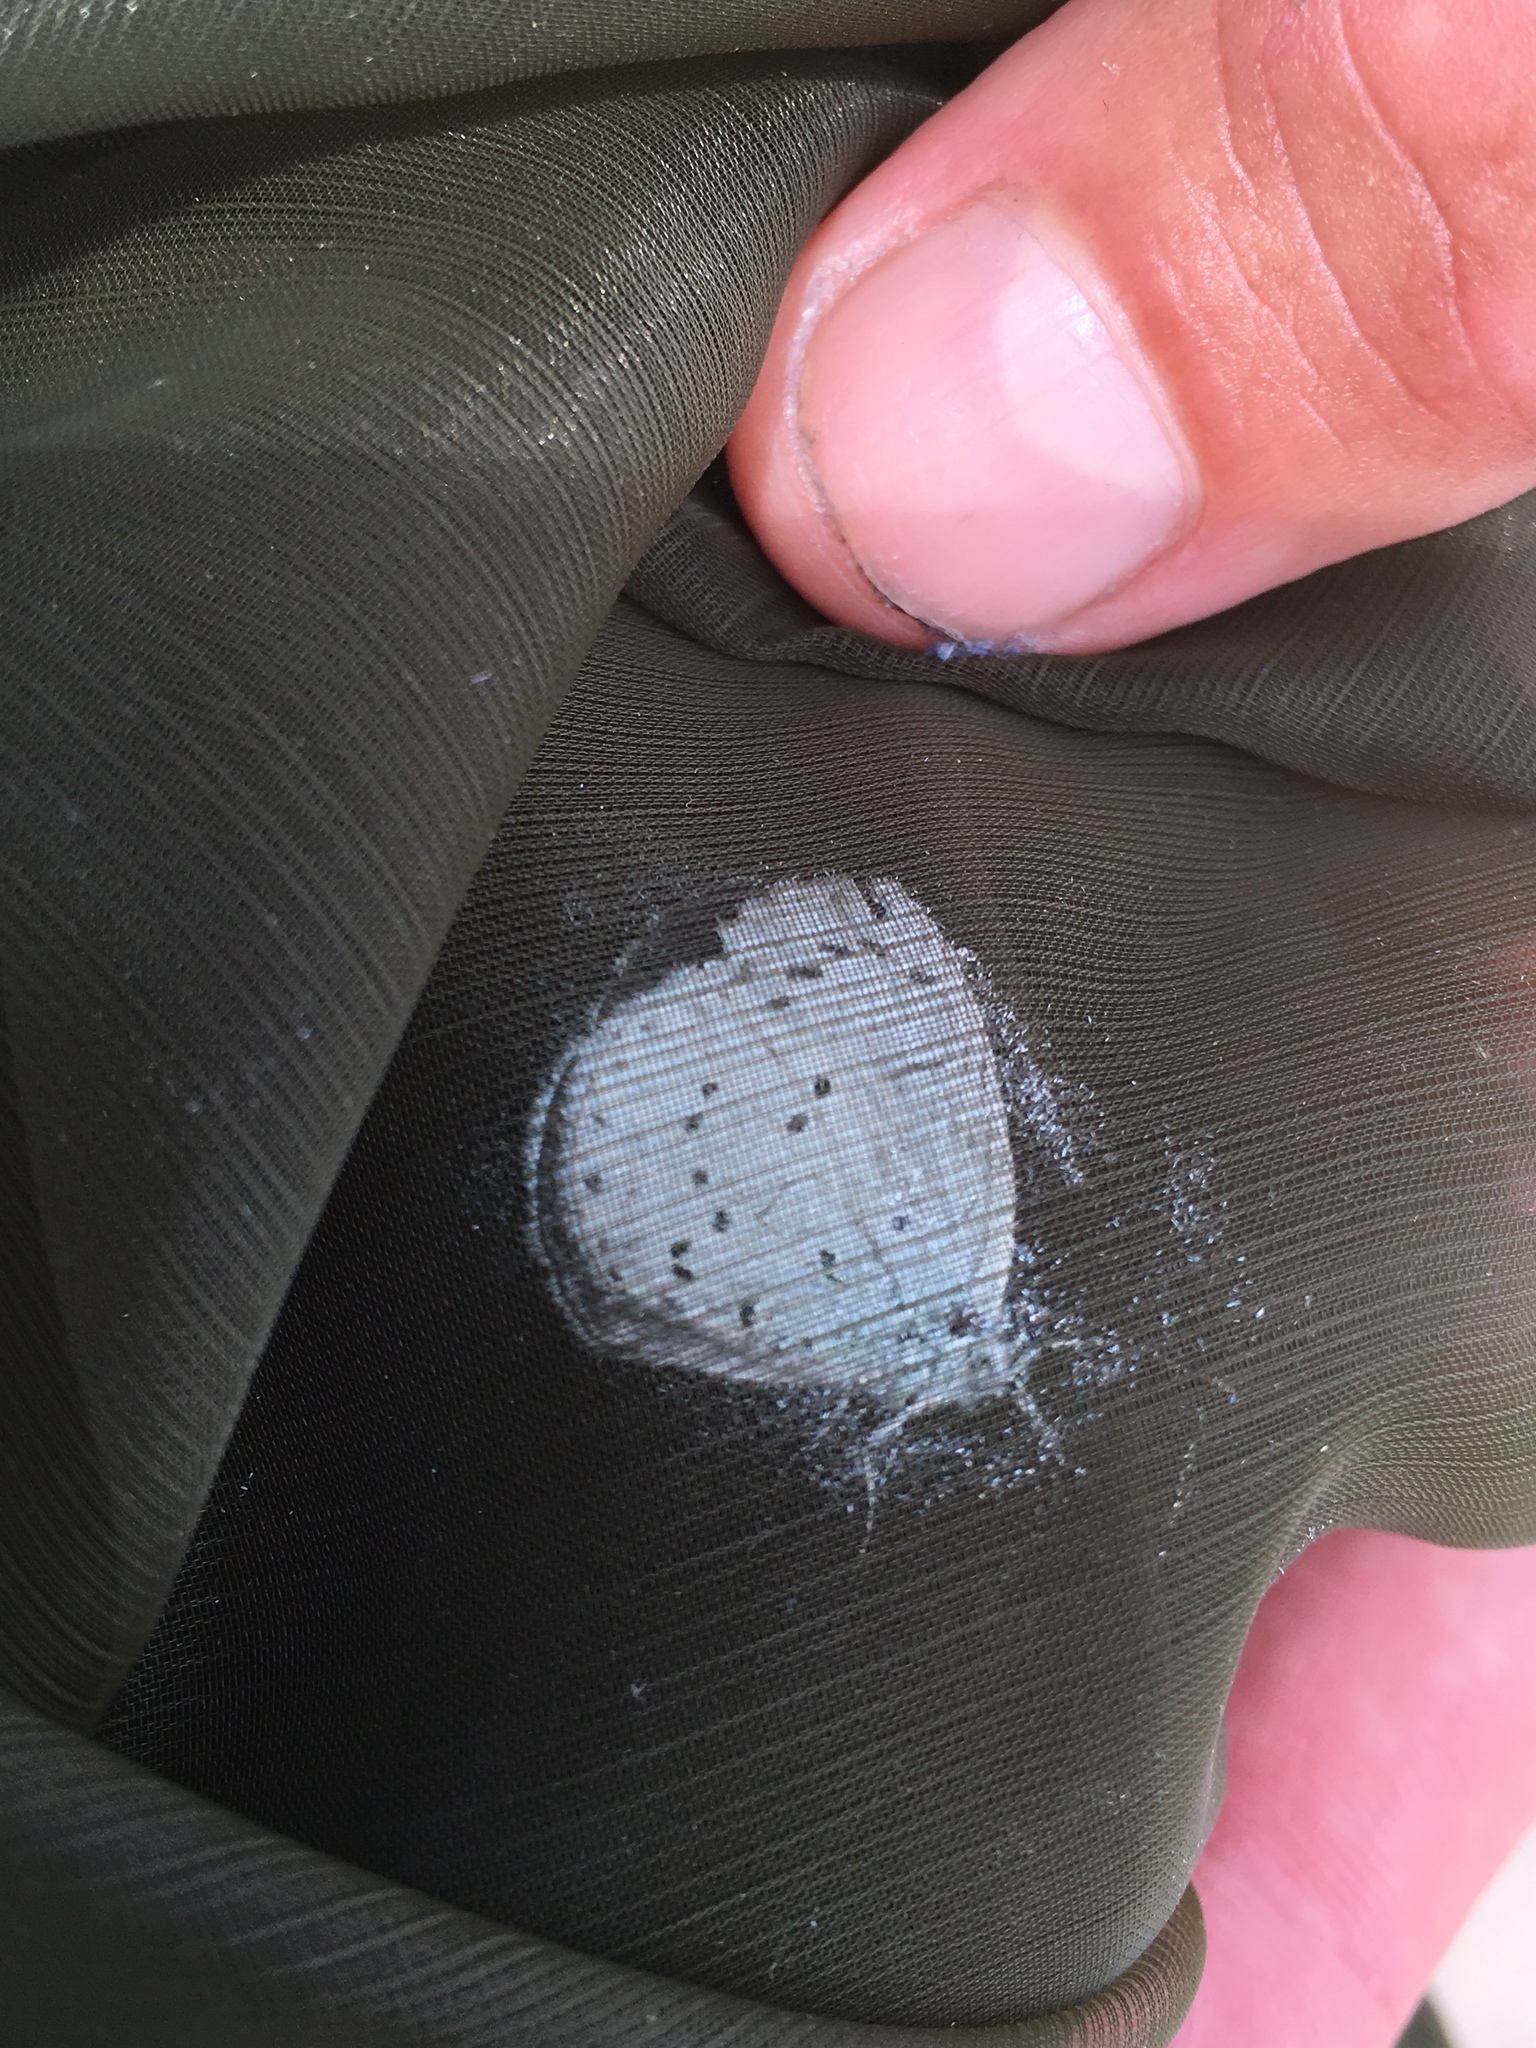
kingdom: Animalia
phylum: Arthropoda
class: Insecta
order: Lepidoptera
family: Lycaenidae
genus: Celastrina
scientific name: Celastrina argiolus
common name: Holly blue
